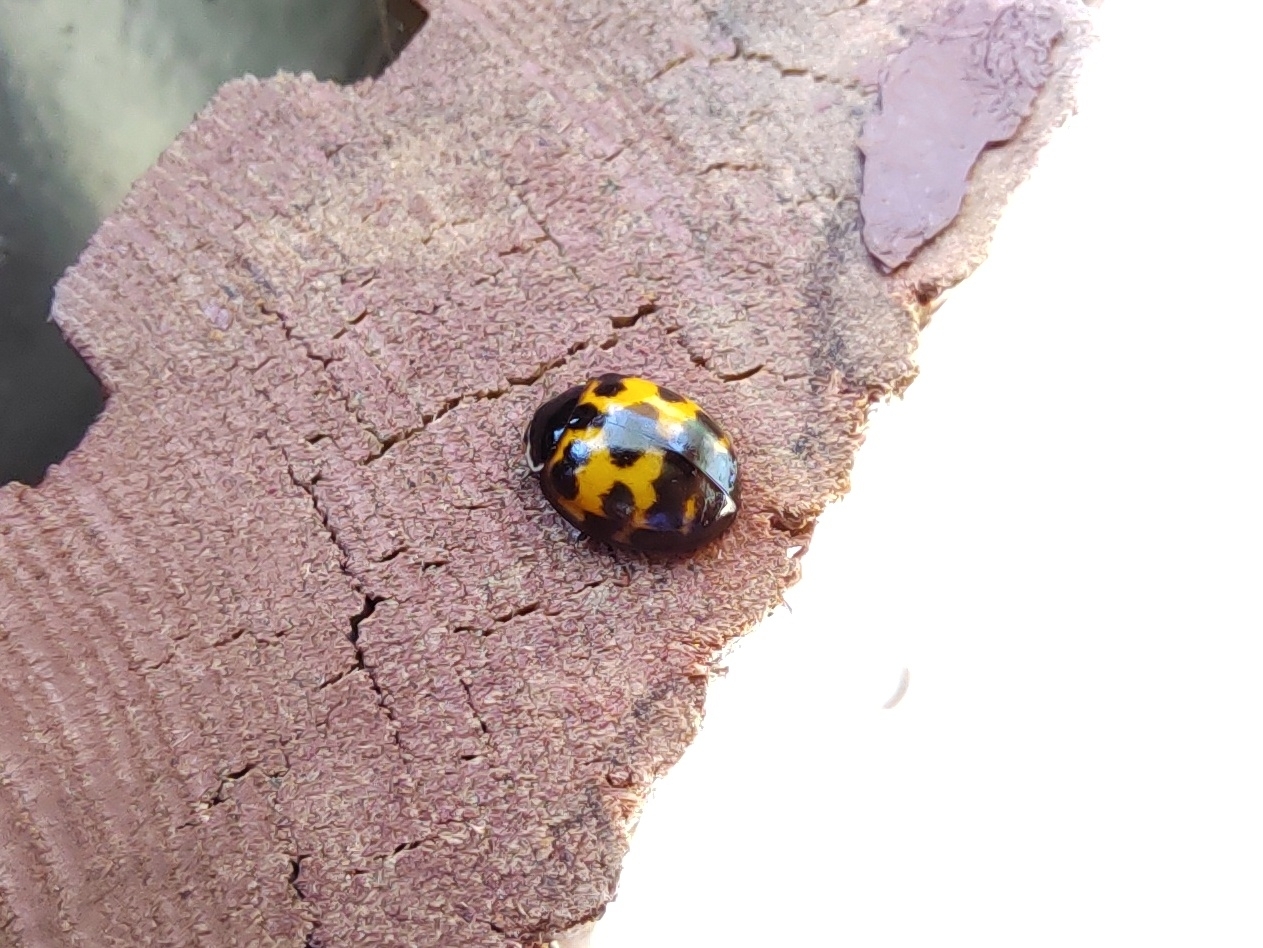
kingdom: Animalia
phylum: Arthropoda
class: Insecta
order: Coleoptera
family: Coccinellidae
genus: Harmonia
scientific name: Harmonia axyridis
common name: Harlequin ladybird
